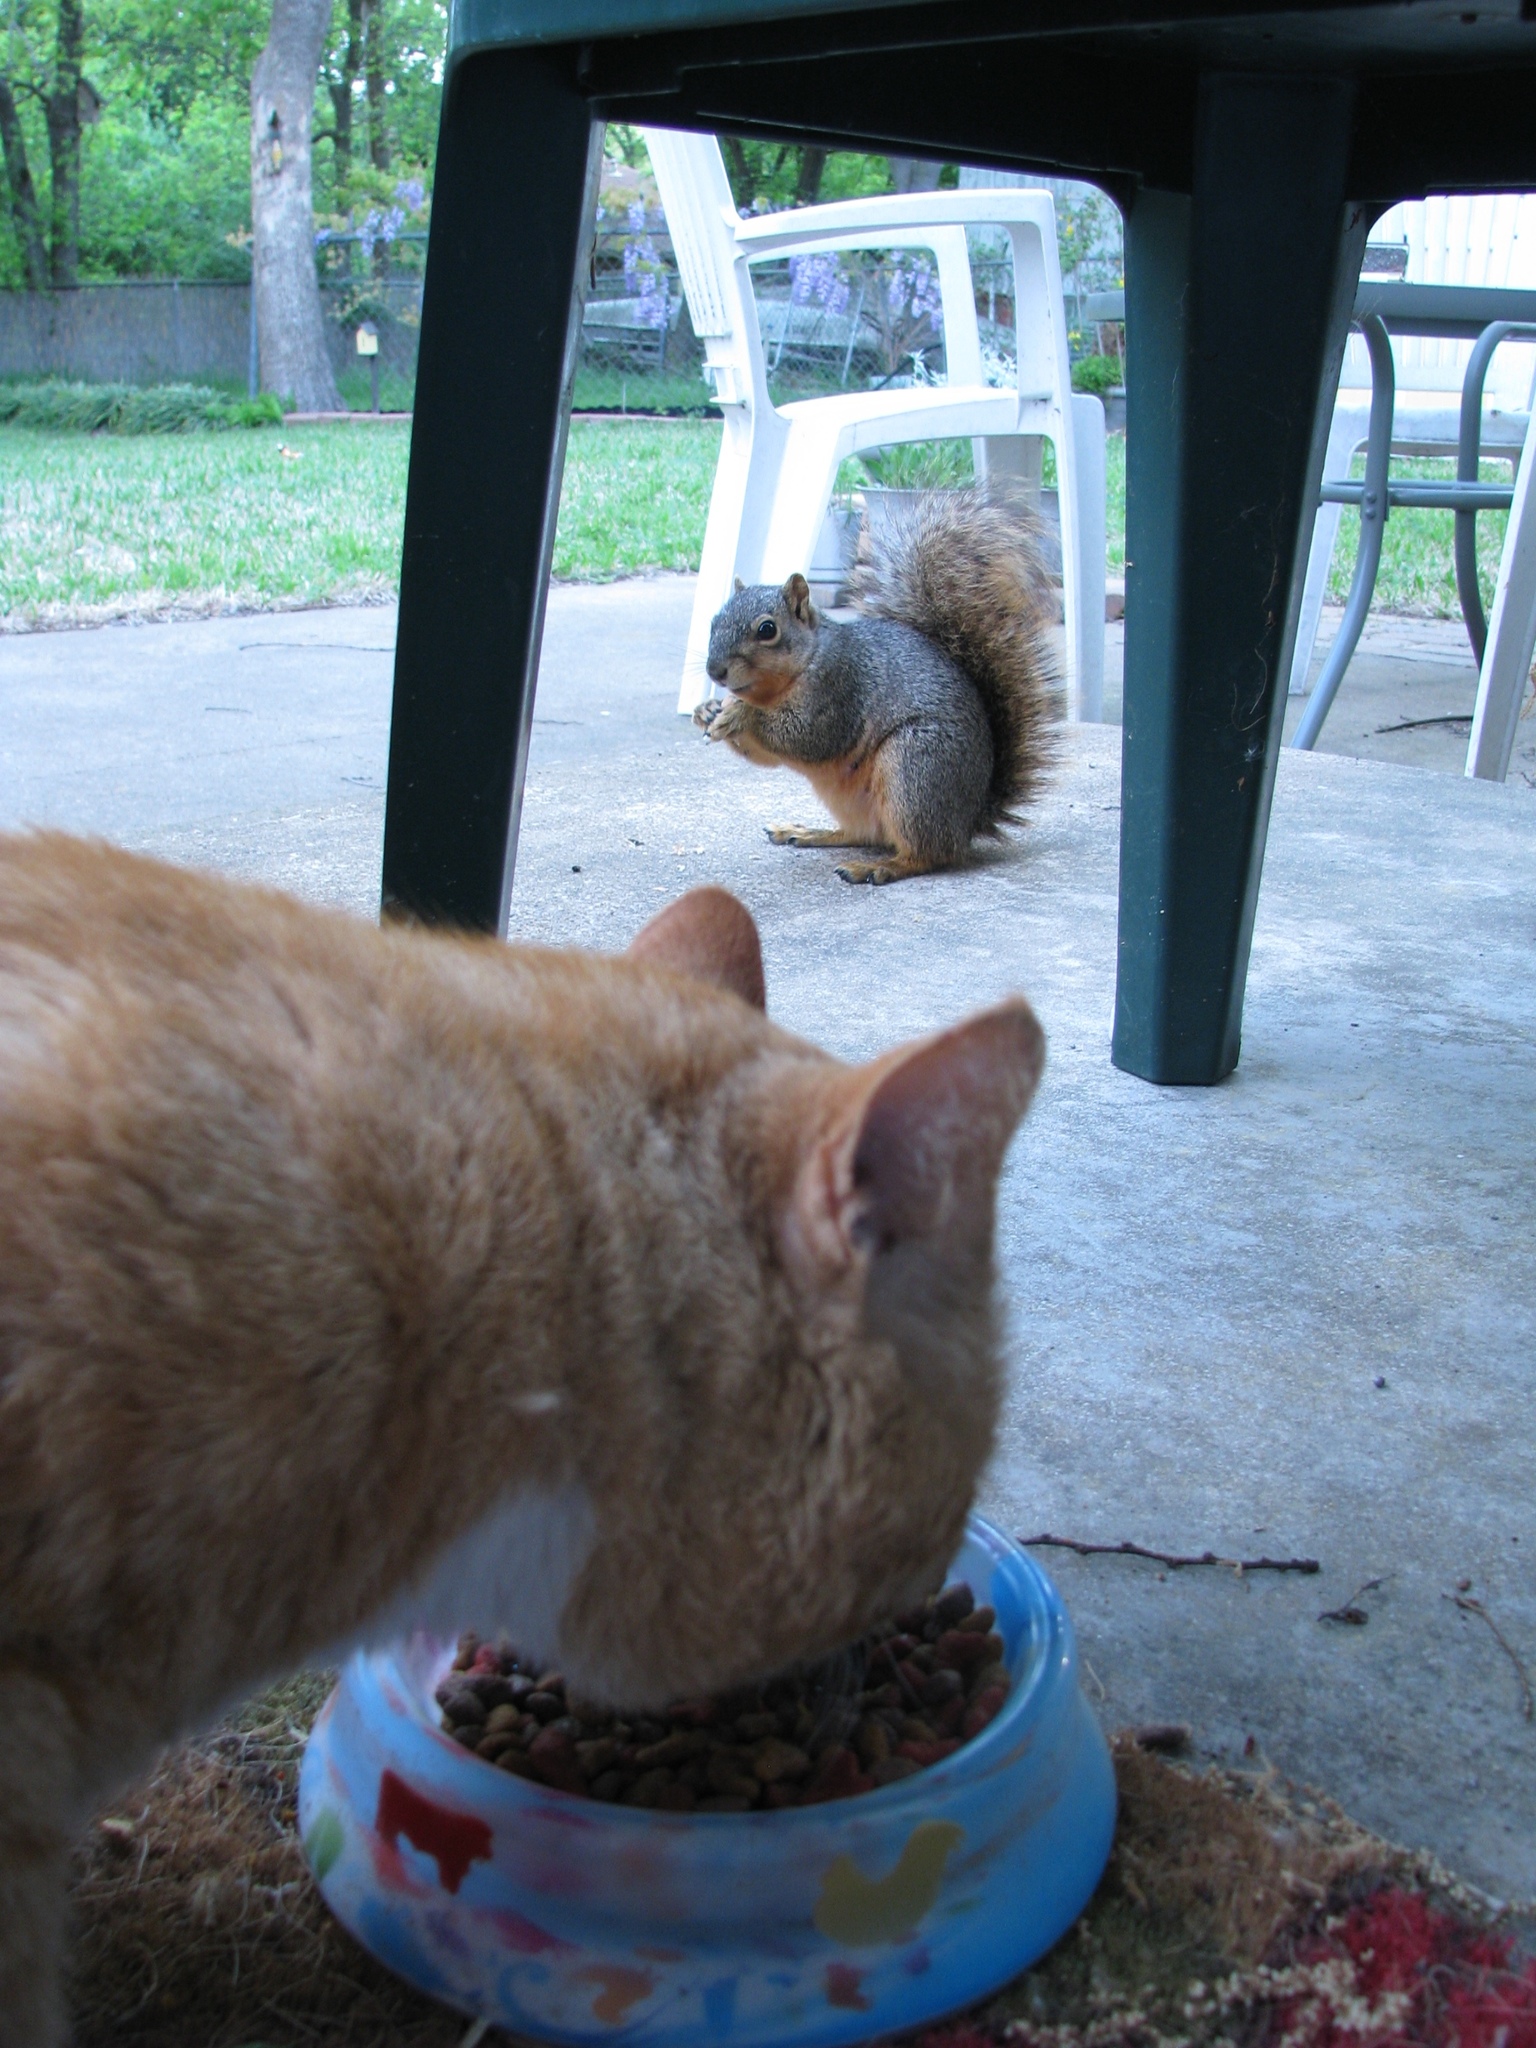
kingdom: Animalia
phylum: Chordata
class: Mammalia
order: Rodentia
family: Sciuridae
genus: Sciurus
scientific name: Sciurus niger
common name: Fox squirrel
